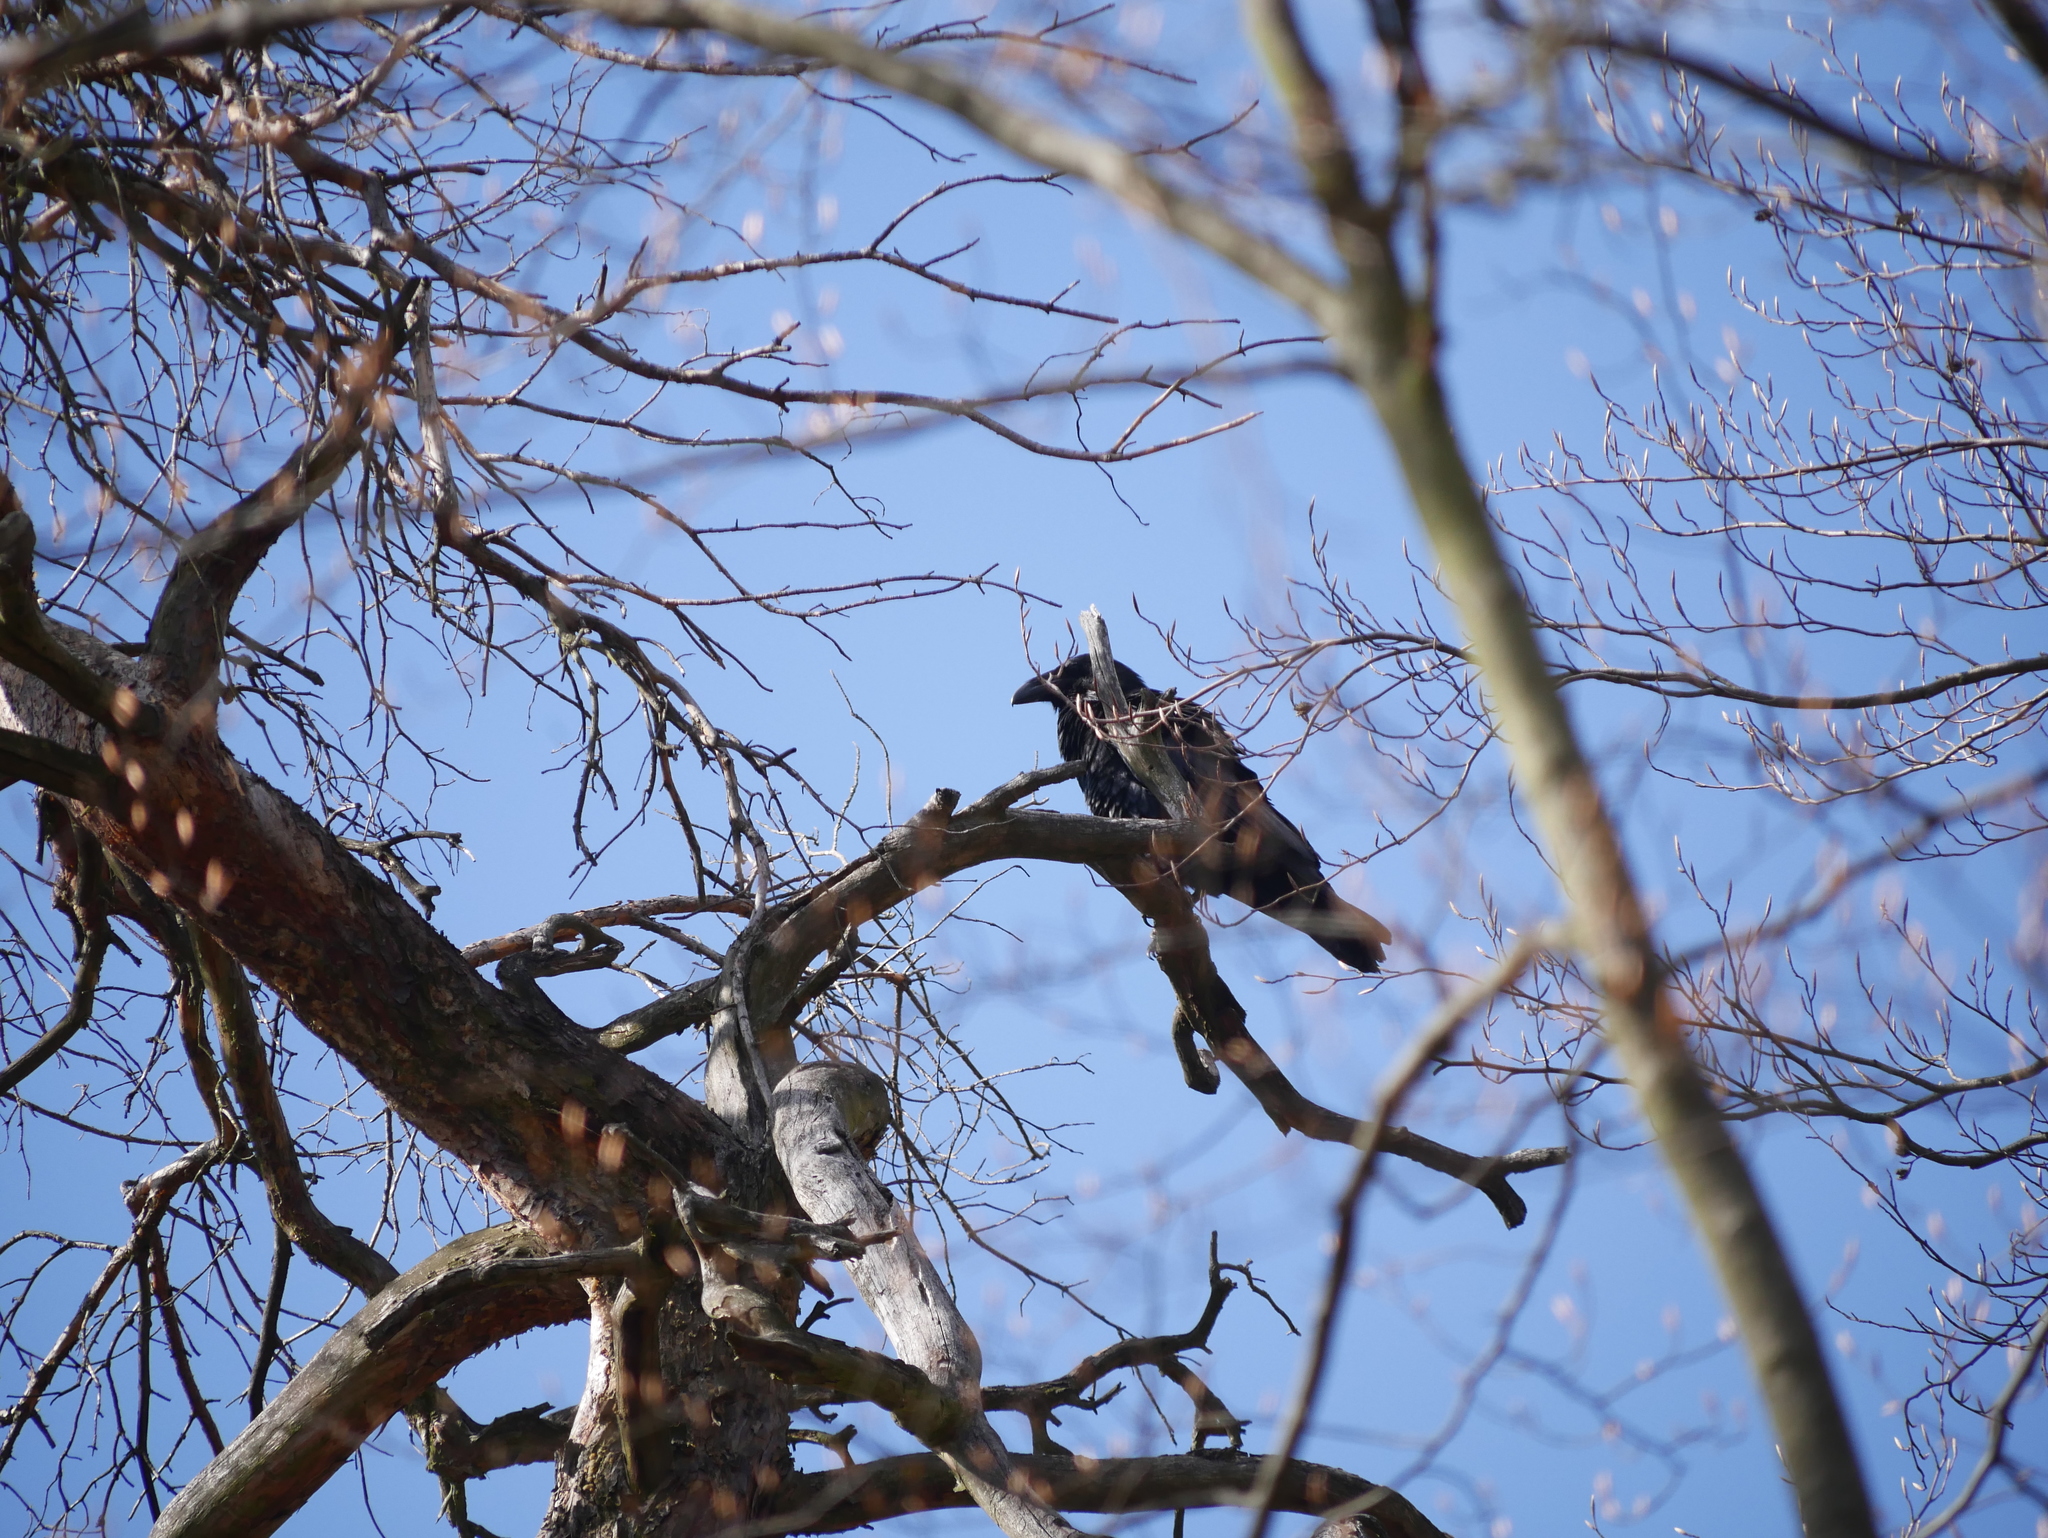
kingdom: Animalia
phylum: Chordata
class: Aves
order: Passeriformes
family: Corvidae
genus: Corvus
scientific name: Corvus corax
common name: Common raven
